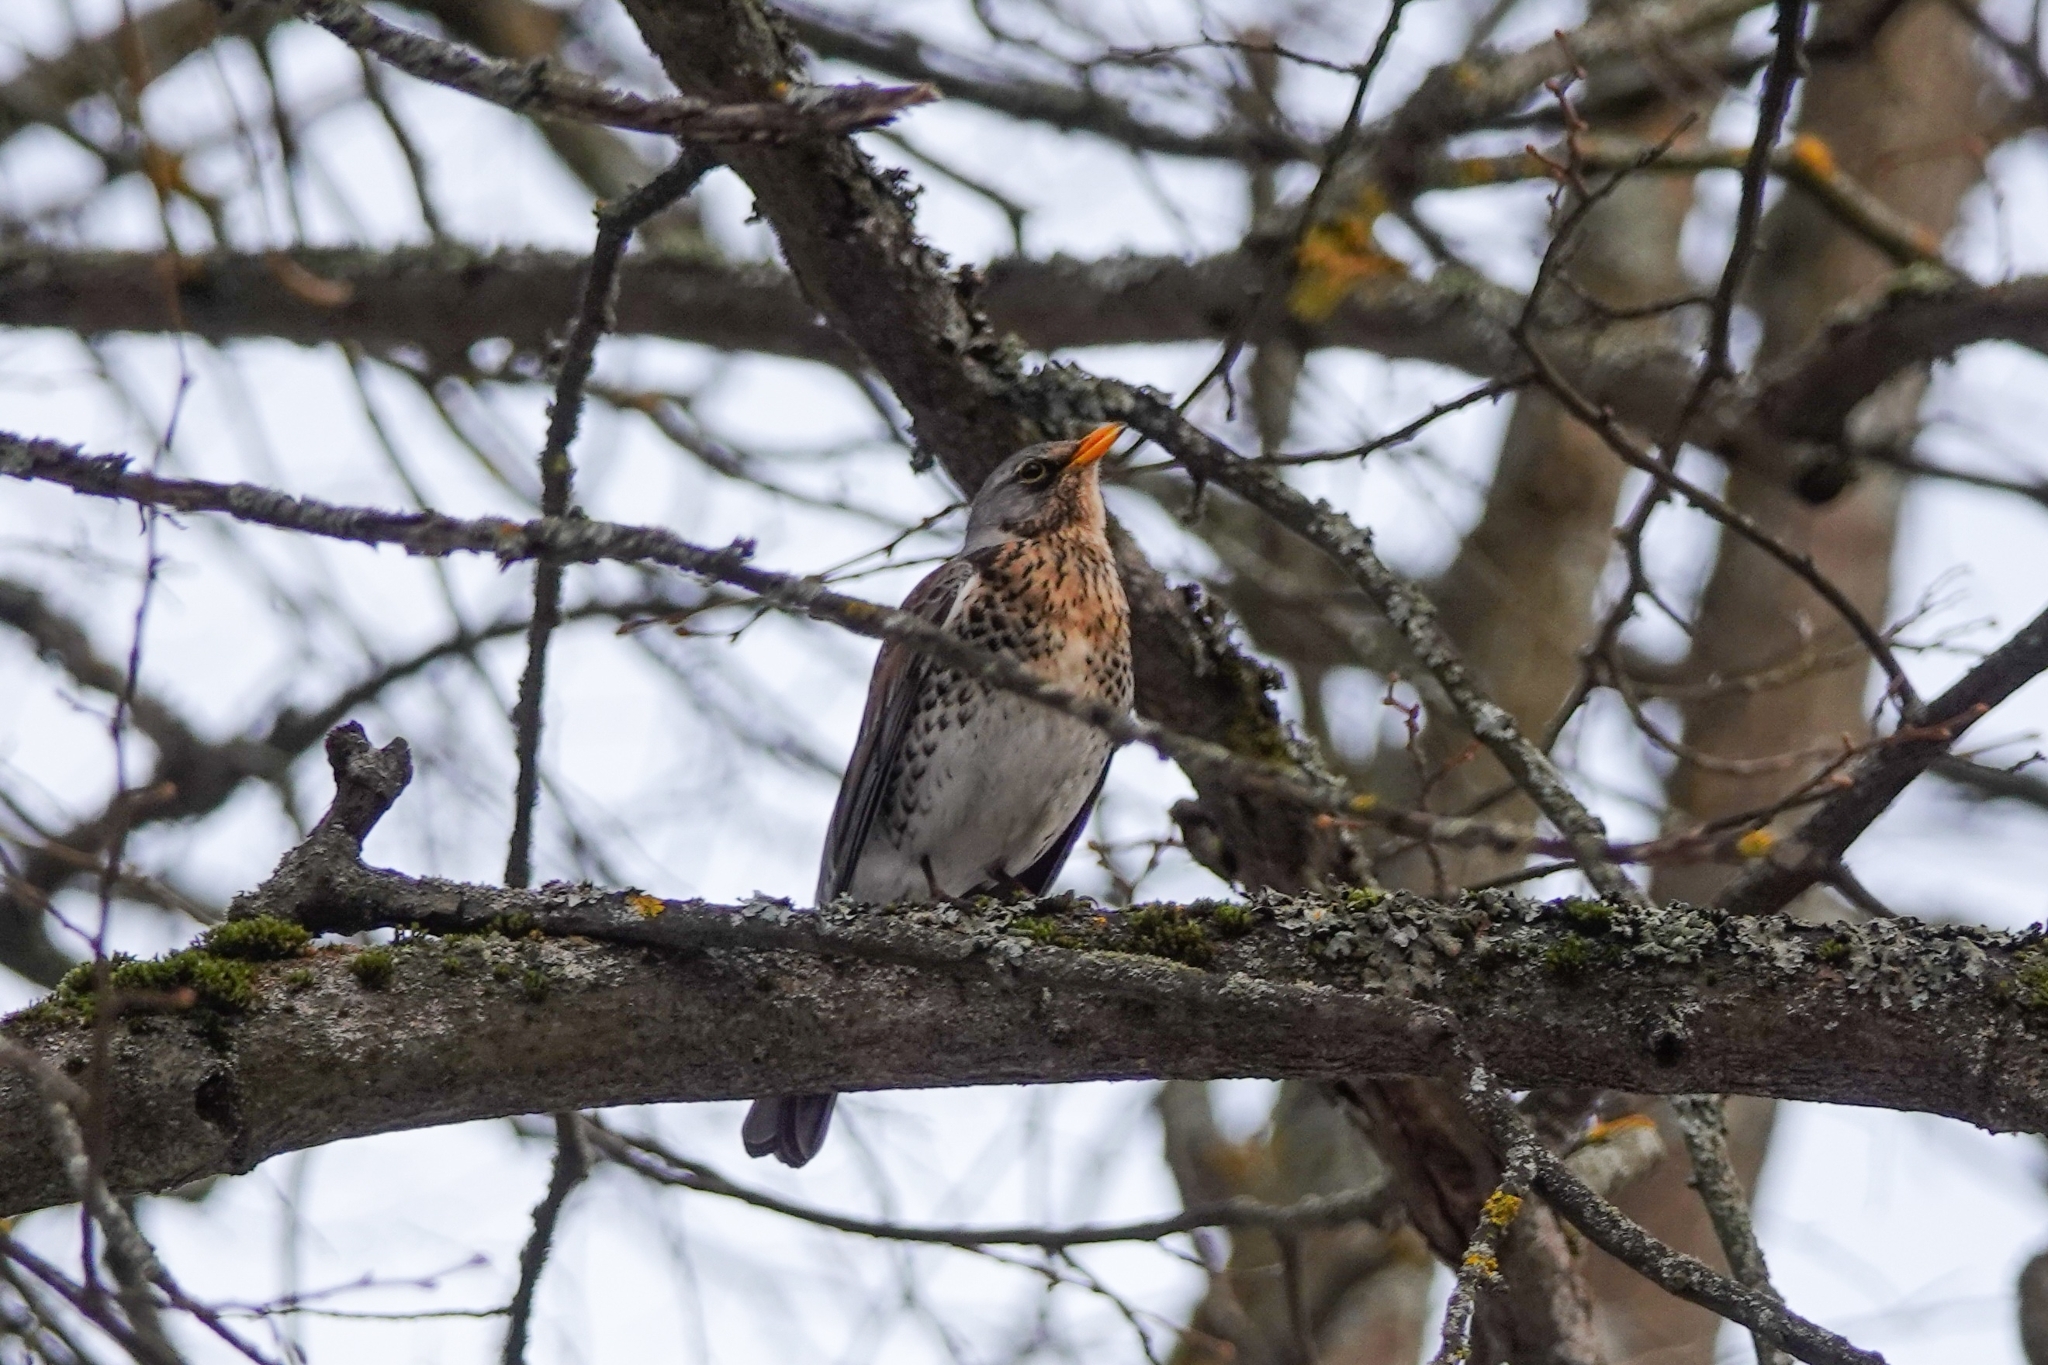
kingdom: Animalia
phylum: Chordata
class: Aves
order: Passeriformes
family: Turdidae
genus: Turdus
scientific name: Turdus pilaris
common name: Fieldfare
